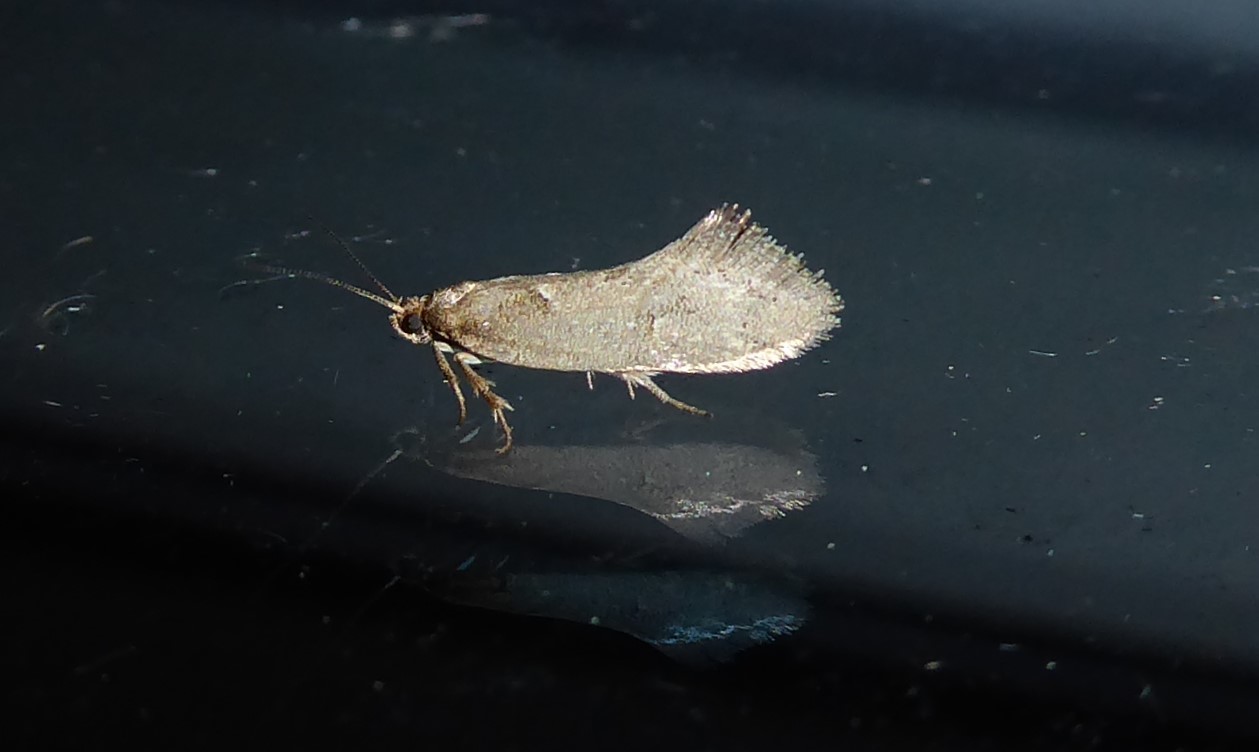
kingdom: Animalia
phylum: Arthropoda
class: Insecta
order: Lepidoptera
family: Oecophoridae
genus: Tingena
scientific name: Tingena brachyacma
